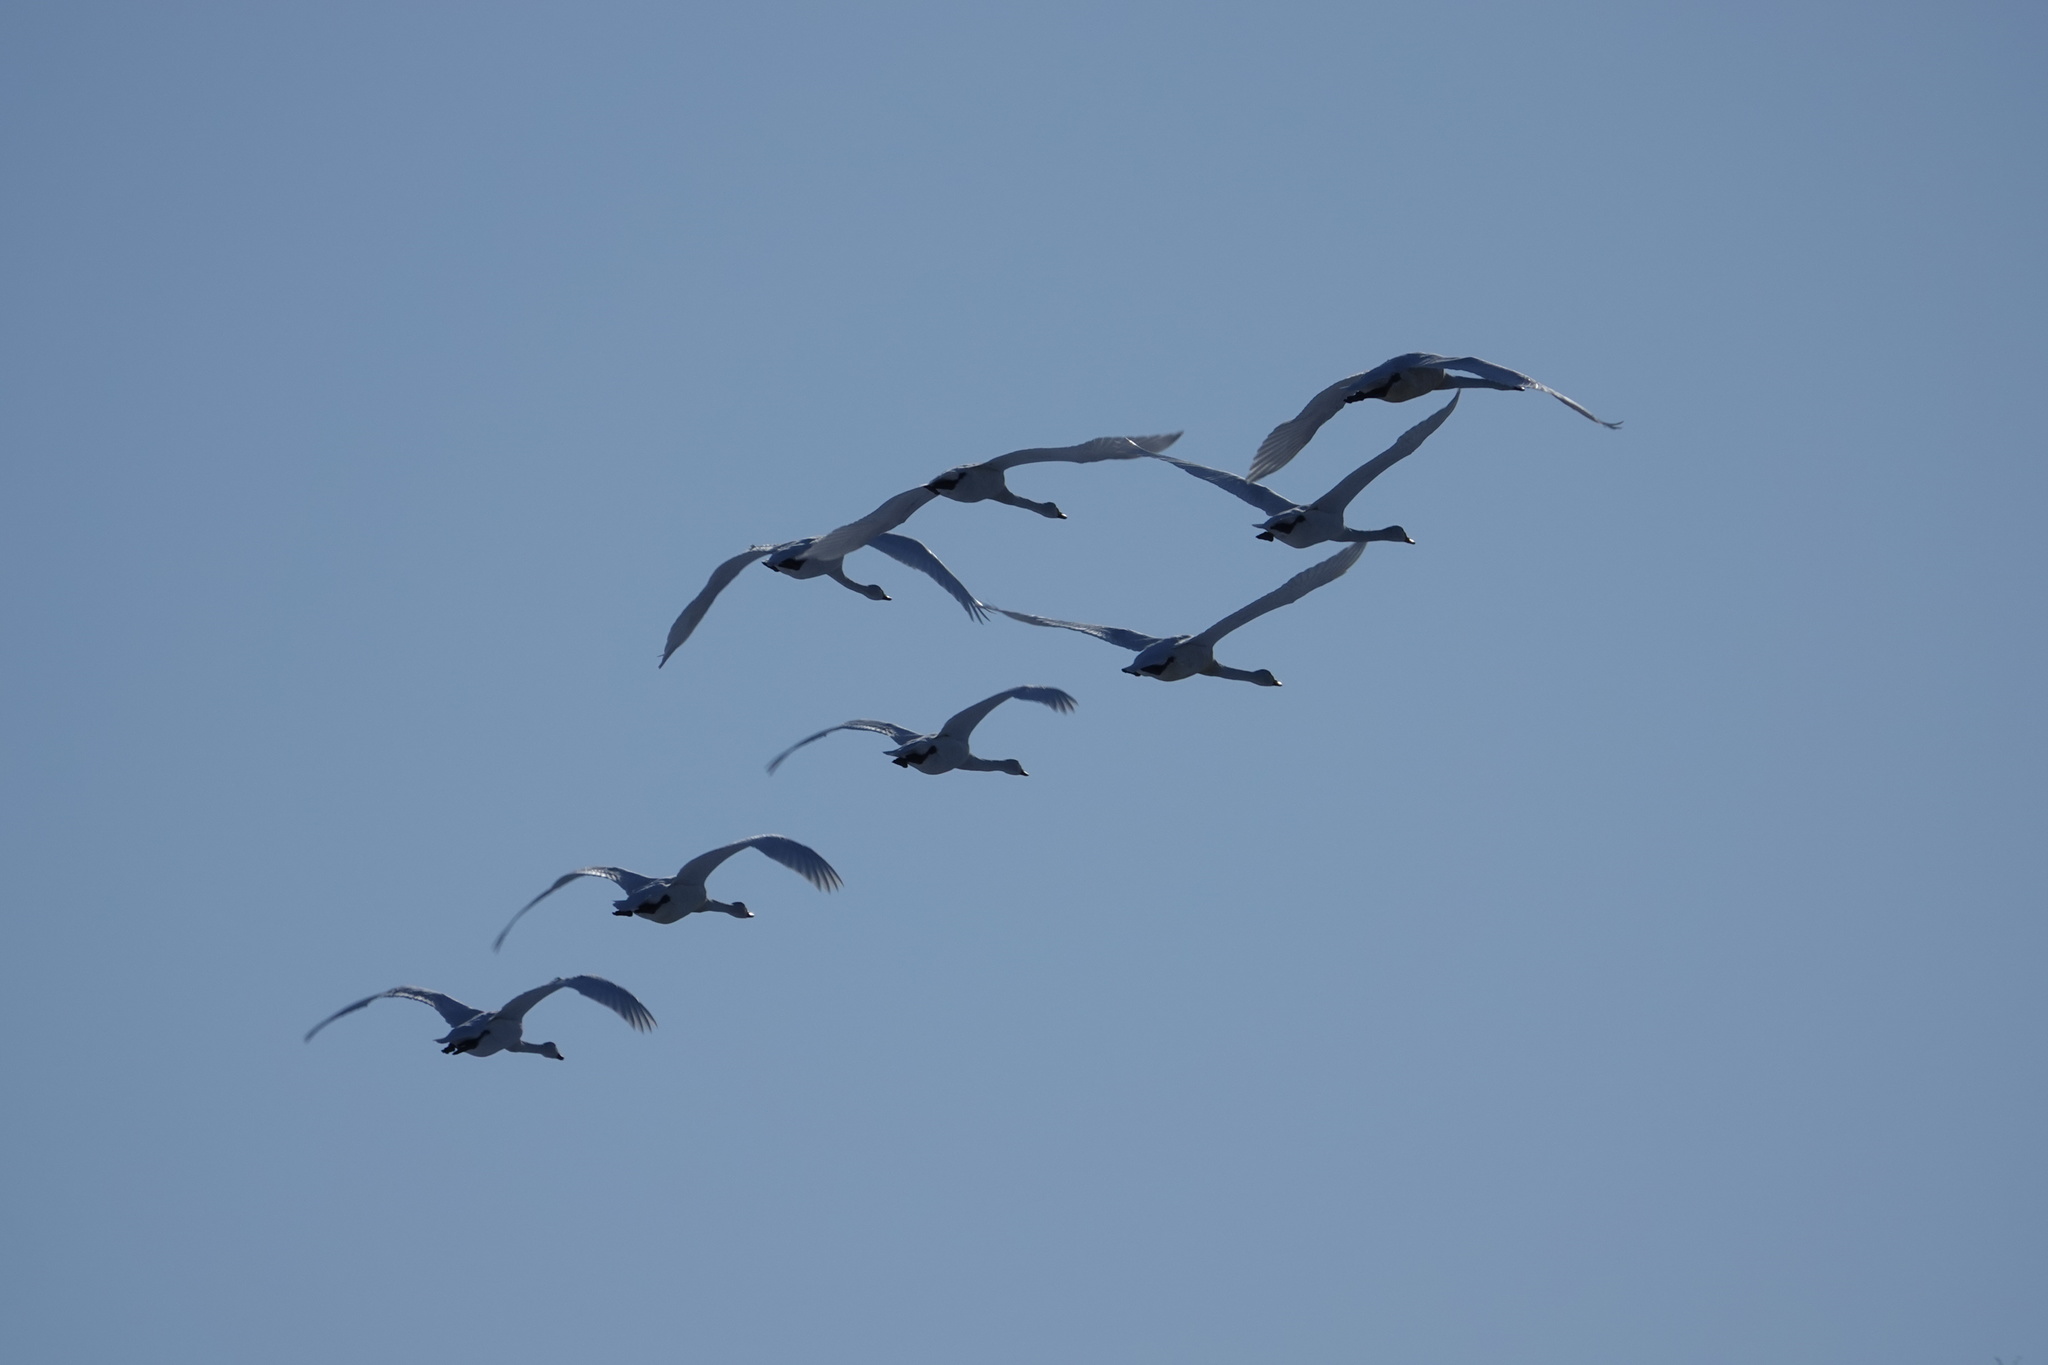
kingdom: Animalia
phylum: Chordata
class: Aves
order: Anseriformes
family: Anatidae
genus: Cygnus
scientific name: Cygnus olor
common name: Mute swan
